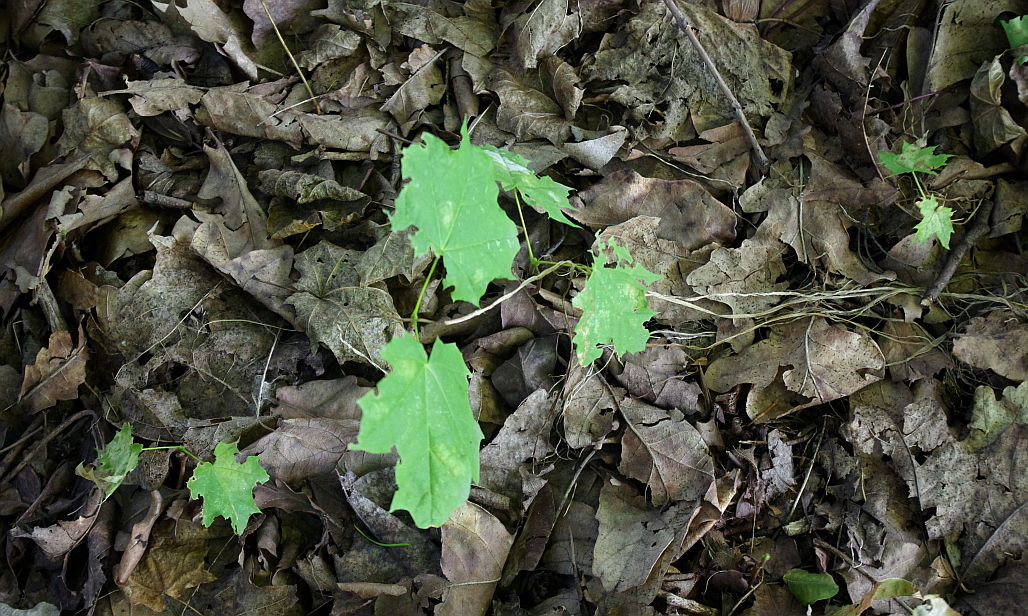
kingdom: Plantae
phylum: Tracheophyta
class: Magnoliopsida
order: Sapindales
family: Sapindaceae
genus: Acer
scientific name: Acer platanoides
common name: Norway maple
